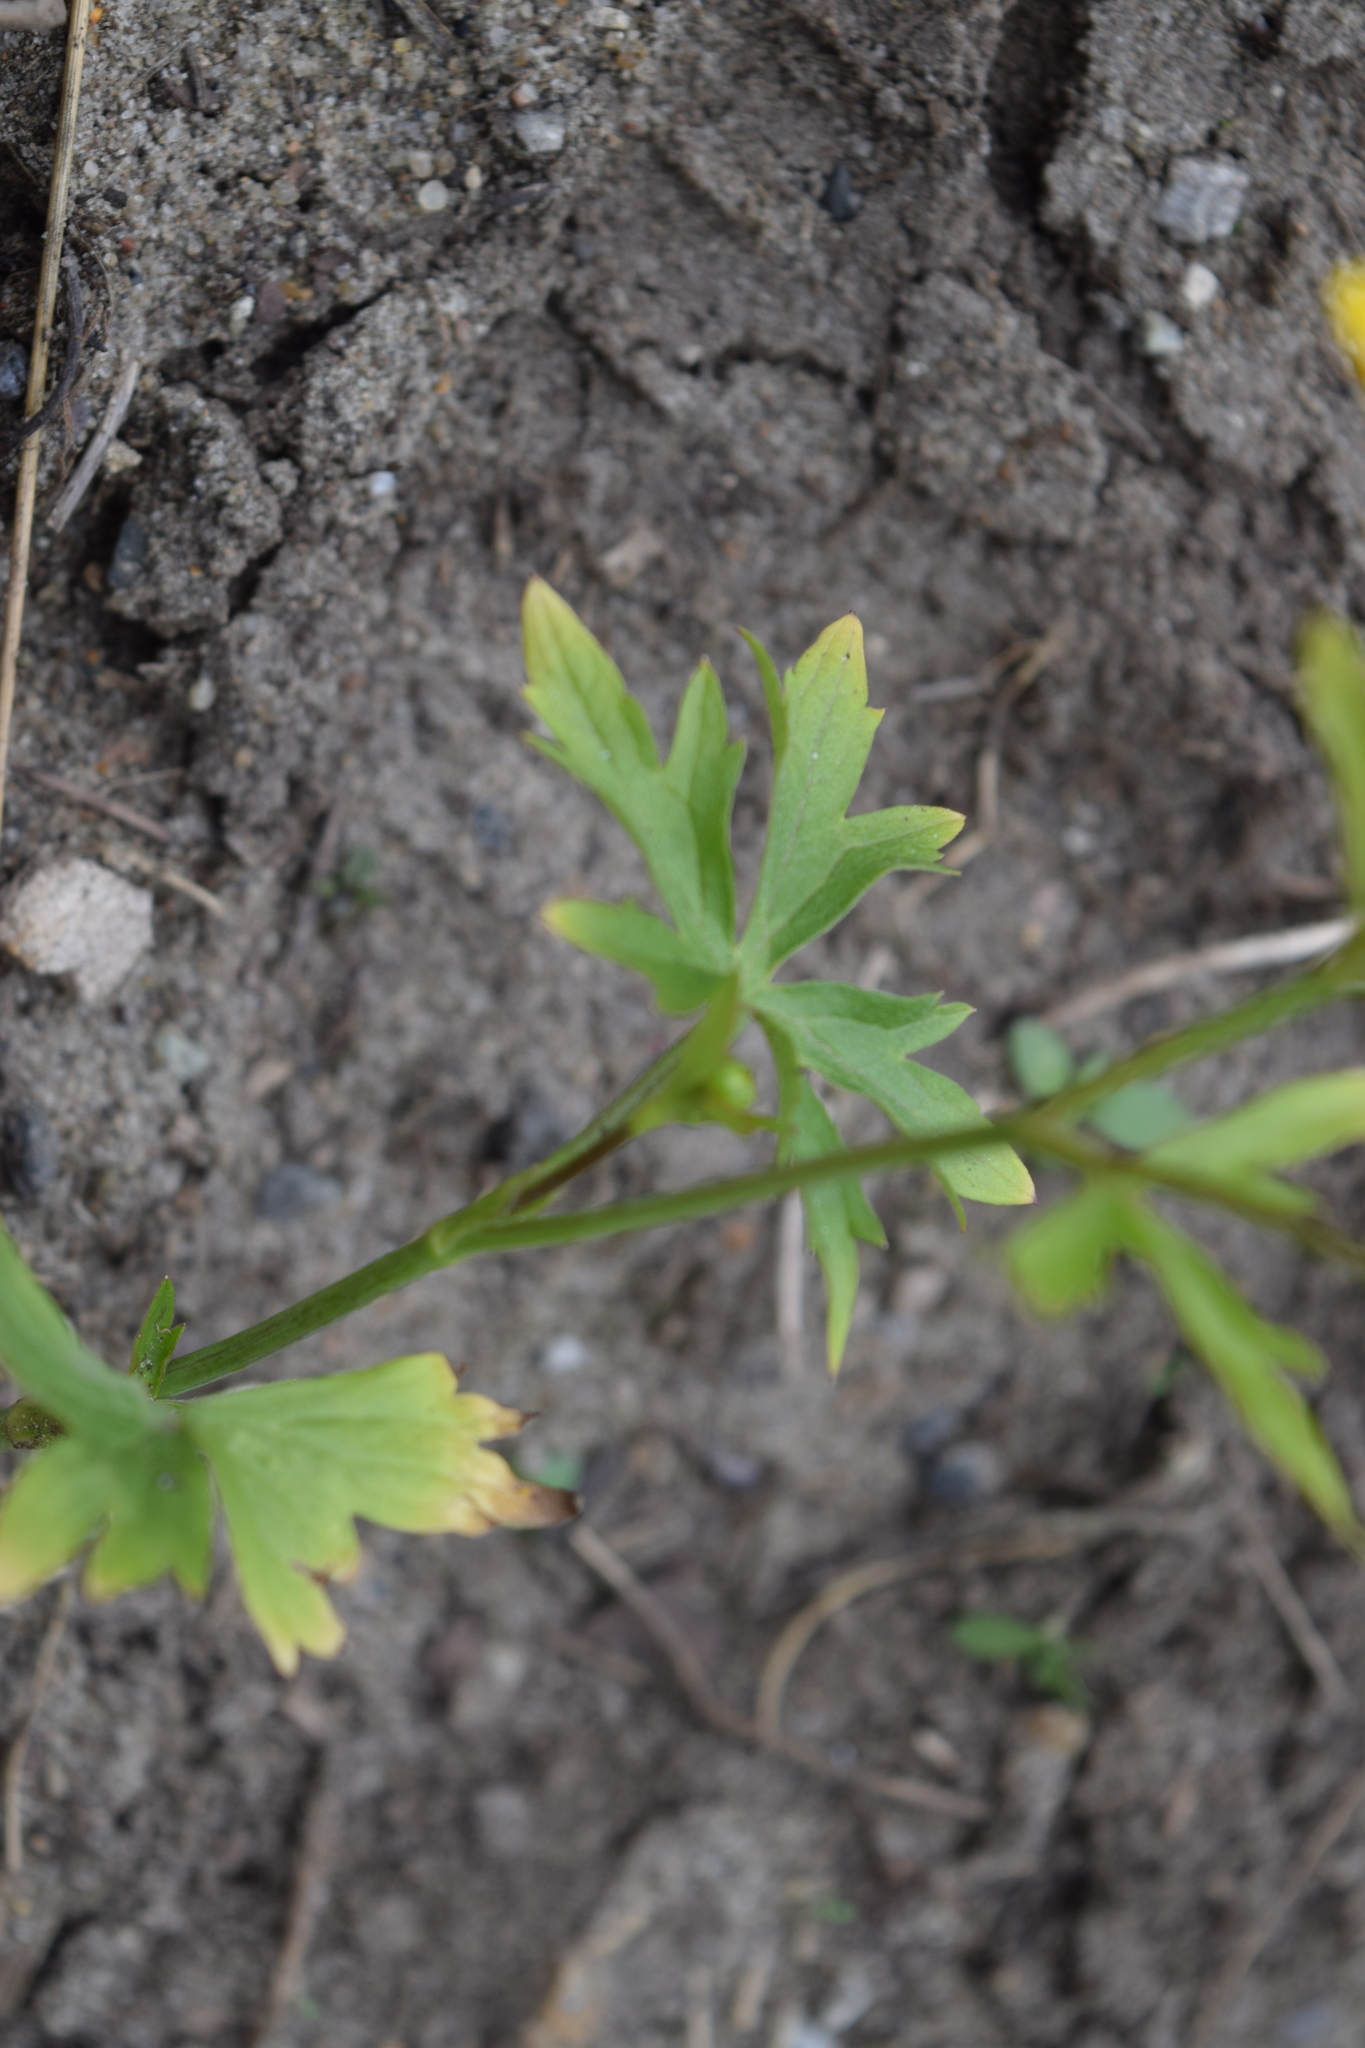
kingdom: Plantae
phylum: Tracheophyta
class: Magnoliopsida
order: Ranunculales
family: Ranunculaceae
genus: Ranunculus
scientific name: Ranunculus acris
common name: Meadow buttercup
